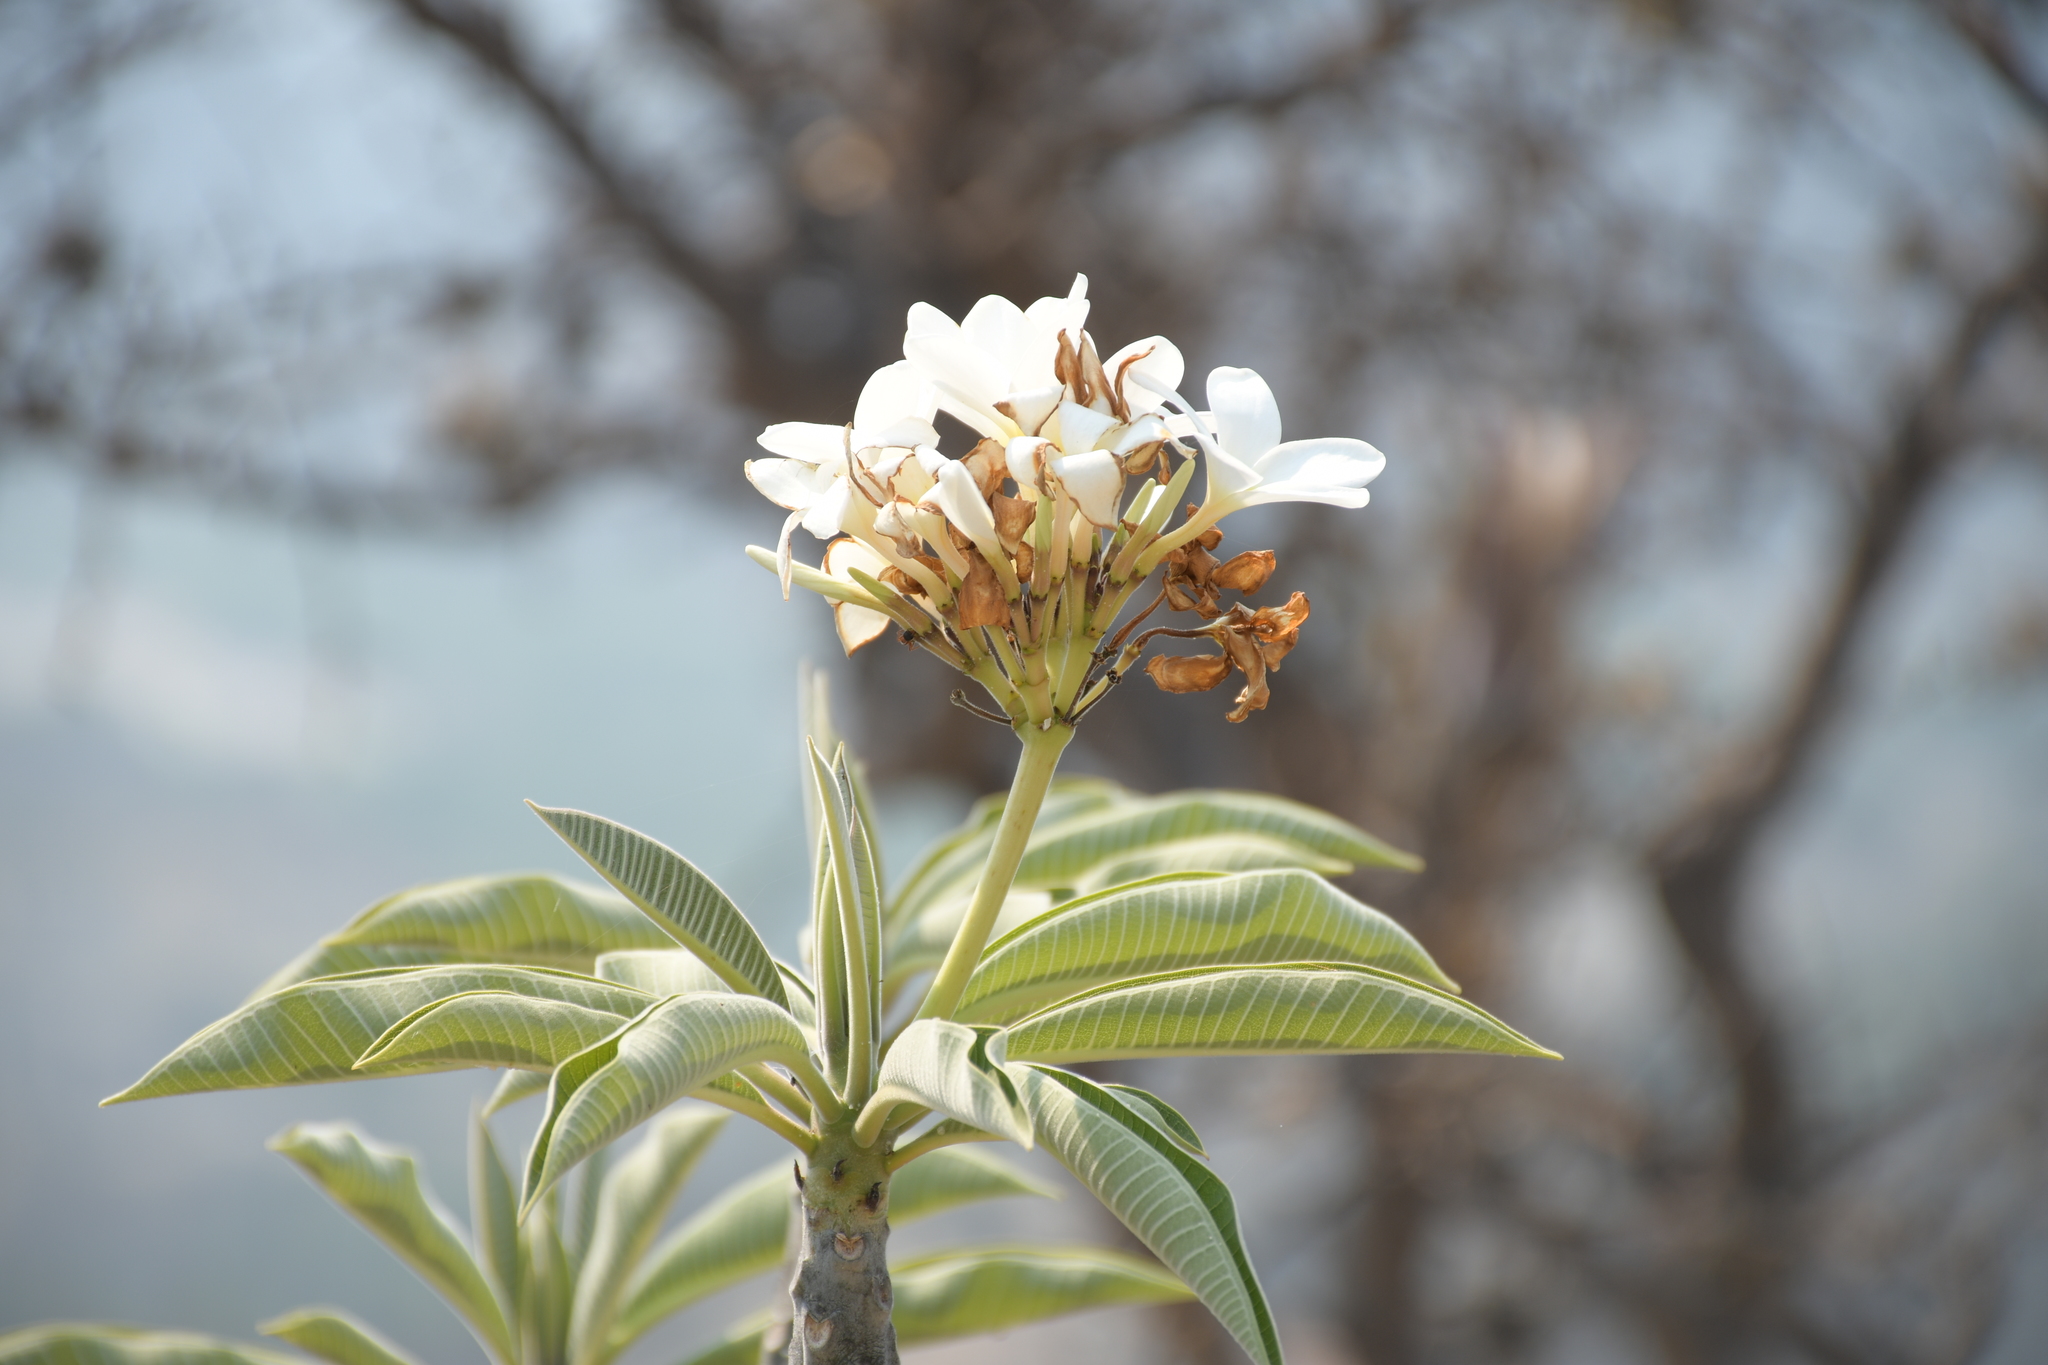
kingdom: Plantae
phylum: Tracheophyta
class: Magnoliopsida
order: Gentianales
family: Apocynaceae
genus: Plumeria
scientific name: Plumeria rubra
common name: Pagoda-tree
